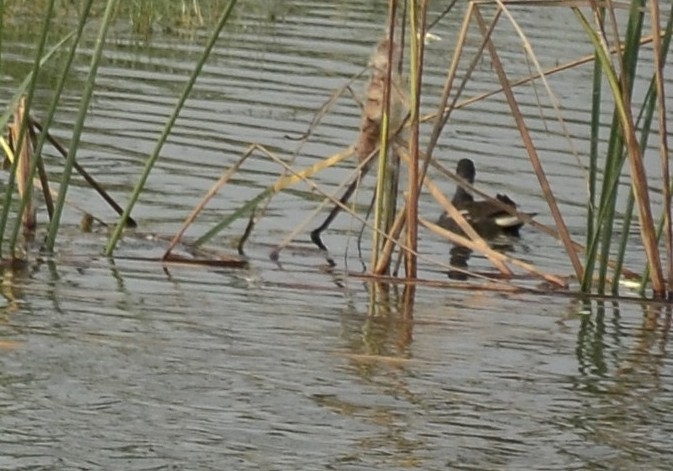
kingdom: Animalia
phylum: Chordata
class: Aves
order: Gruiformes
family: Rallidae
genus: Gallinula
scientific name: Gallinula chloropus
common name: Common moorhen
